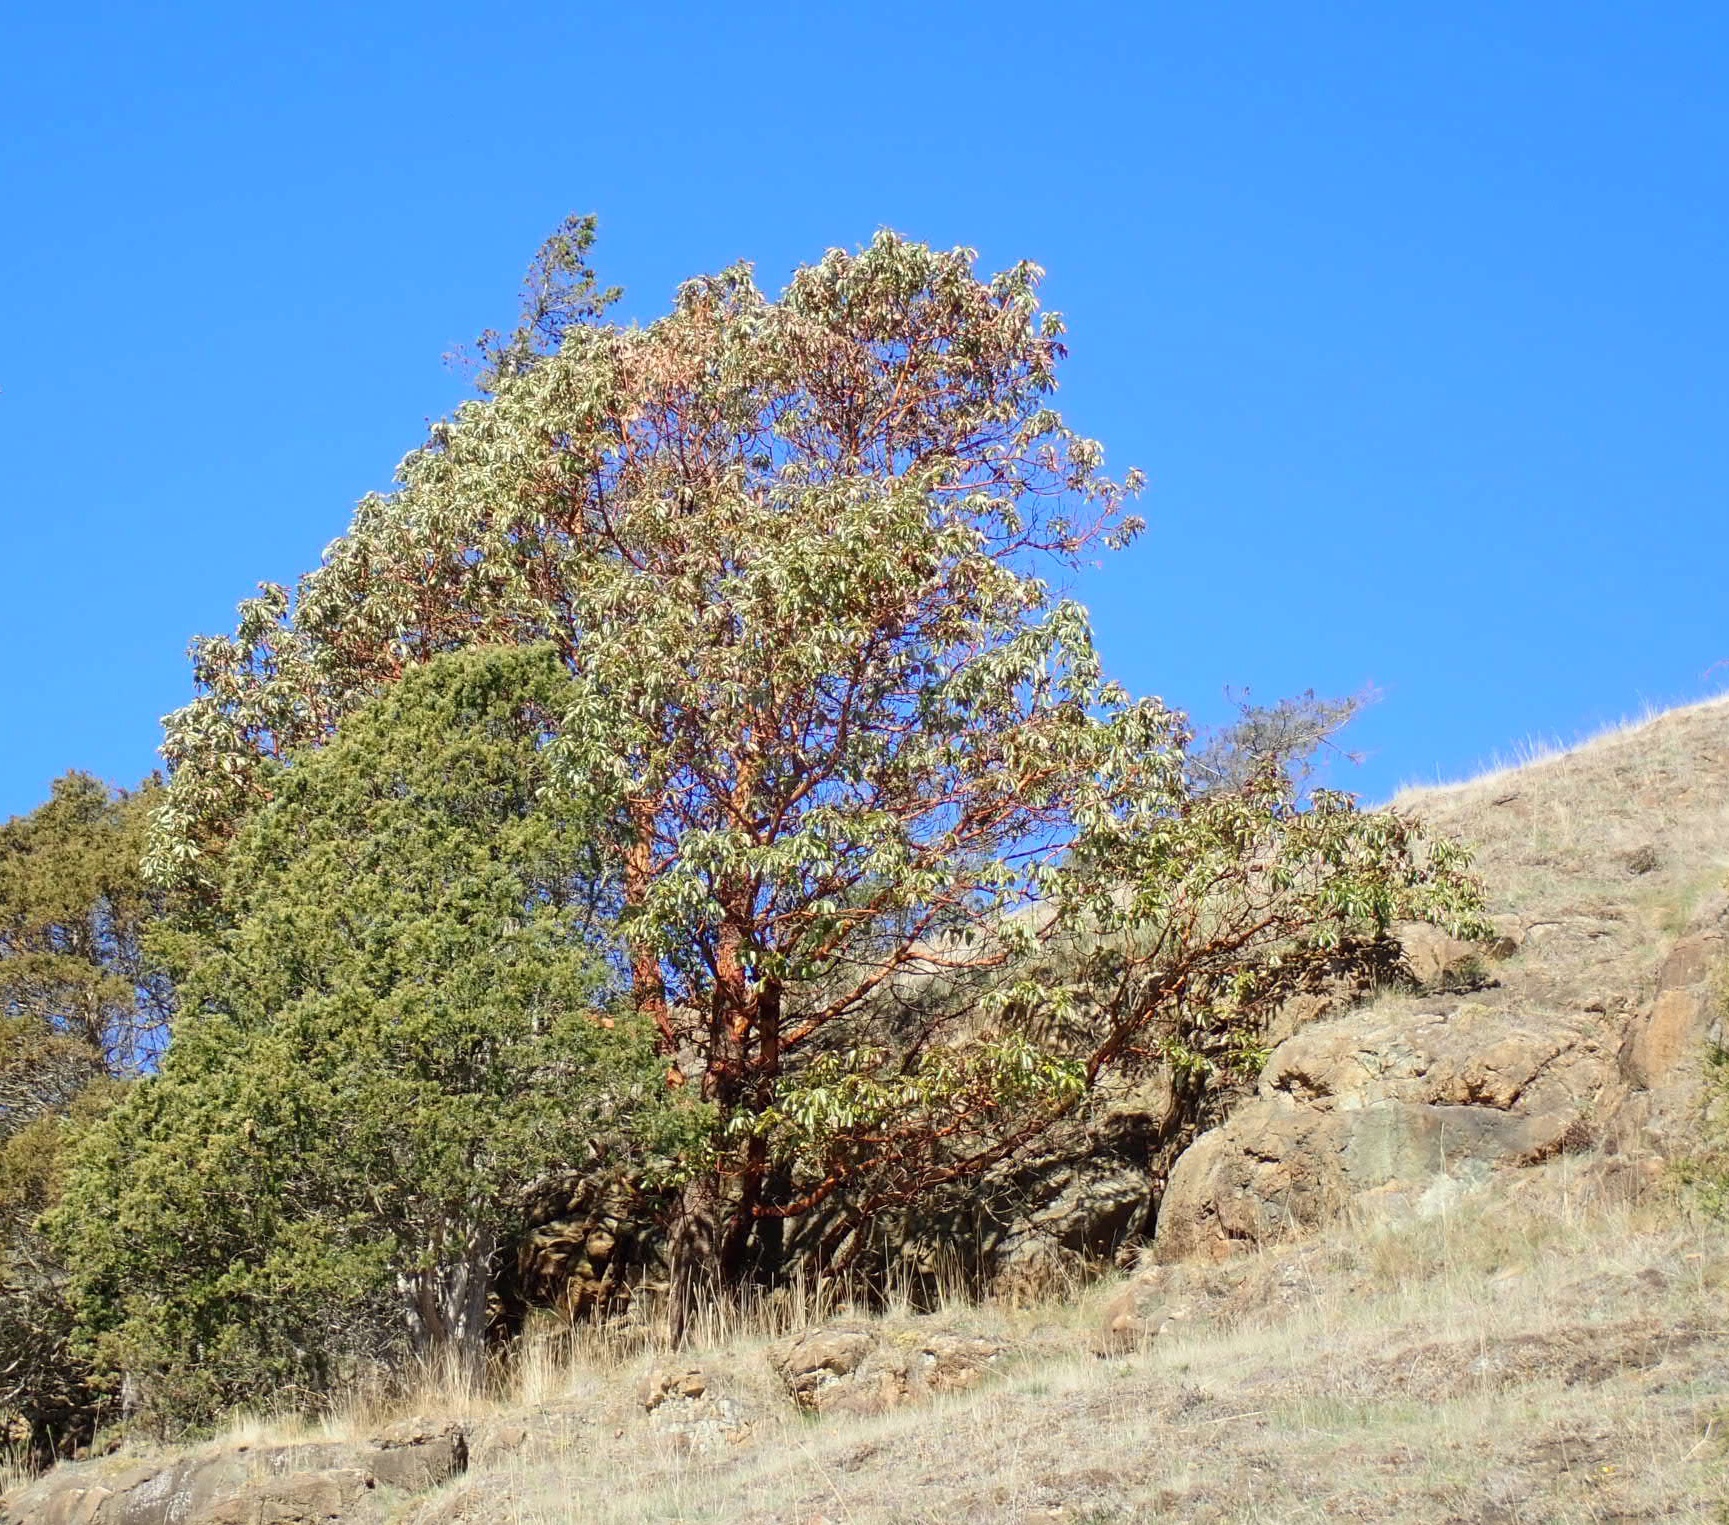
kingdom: Plantae
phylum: Tracheophyta
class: Magnoliopsida
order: Ericales
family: Ericaceae
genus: Arbutus
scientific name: Arbutus menziesii
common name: Pacific madrone
